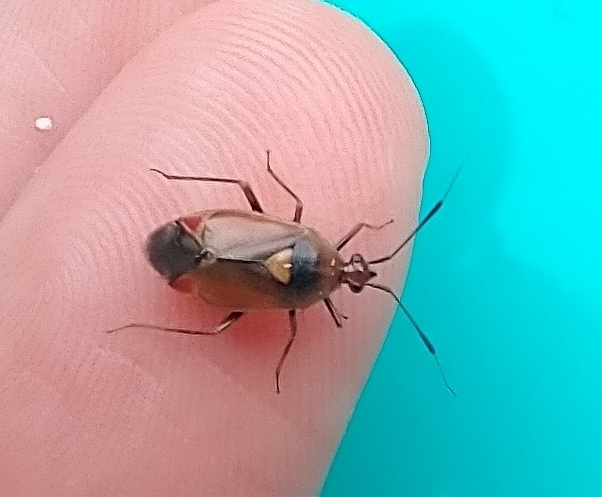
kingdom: Animalia
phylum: Arthropoda
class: Insecta
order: Hemiptera
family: Miridae
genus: Deraeocoris
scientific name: Deraeocoris ruber
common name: Plant bug
